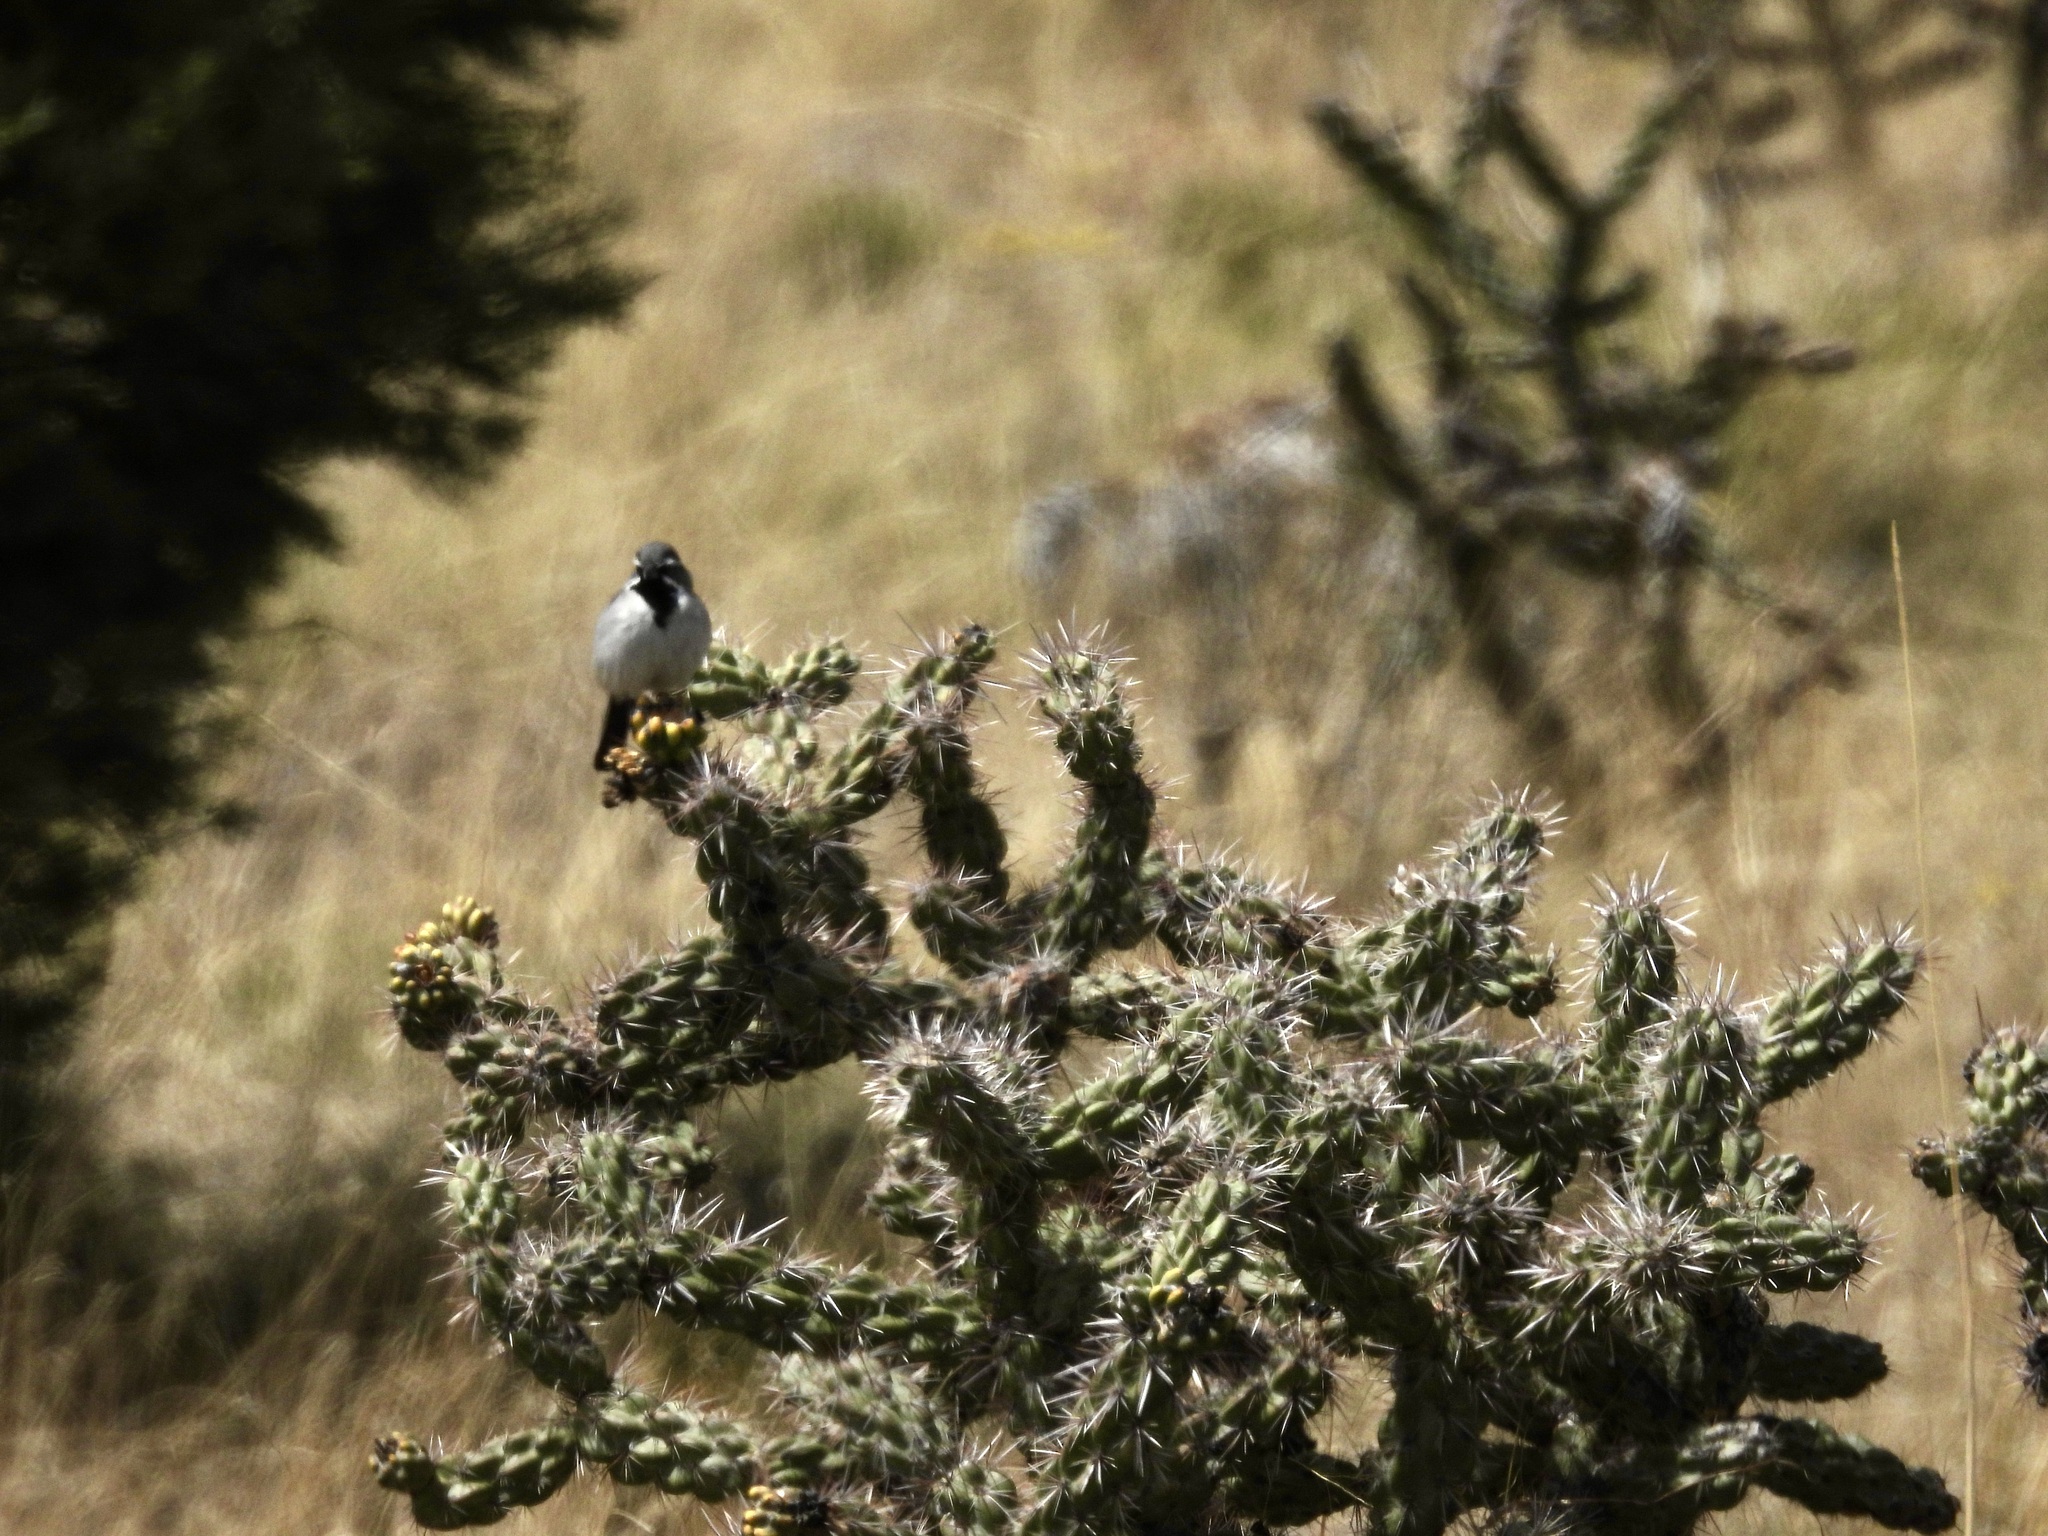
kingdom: Animalia
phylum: Chordata
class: Aves
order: Passeriformes
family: Passerellidae
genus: Amphispiza
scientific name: Amphispiza bilineata
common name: Black-throated sparrow
